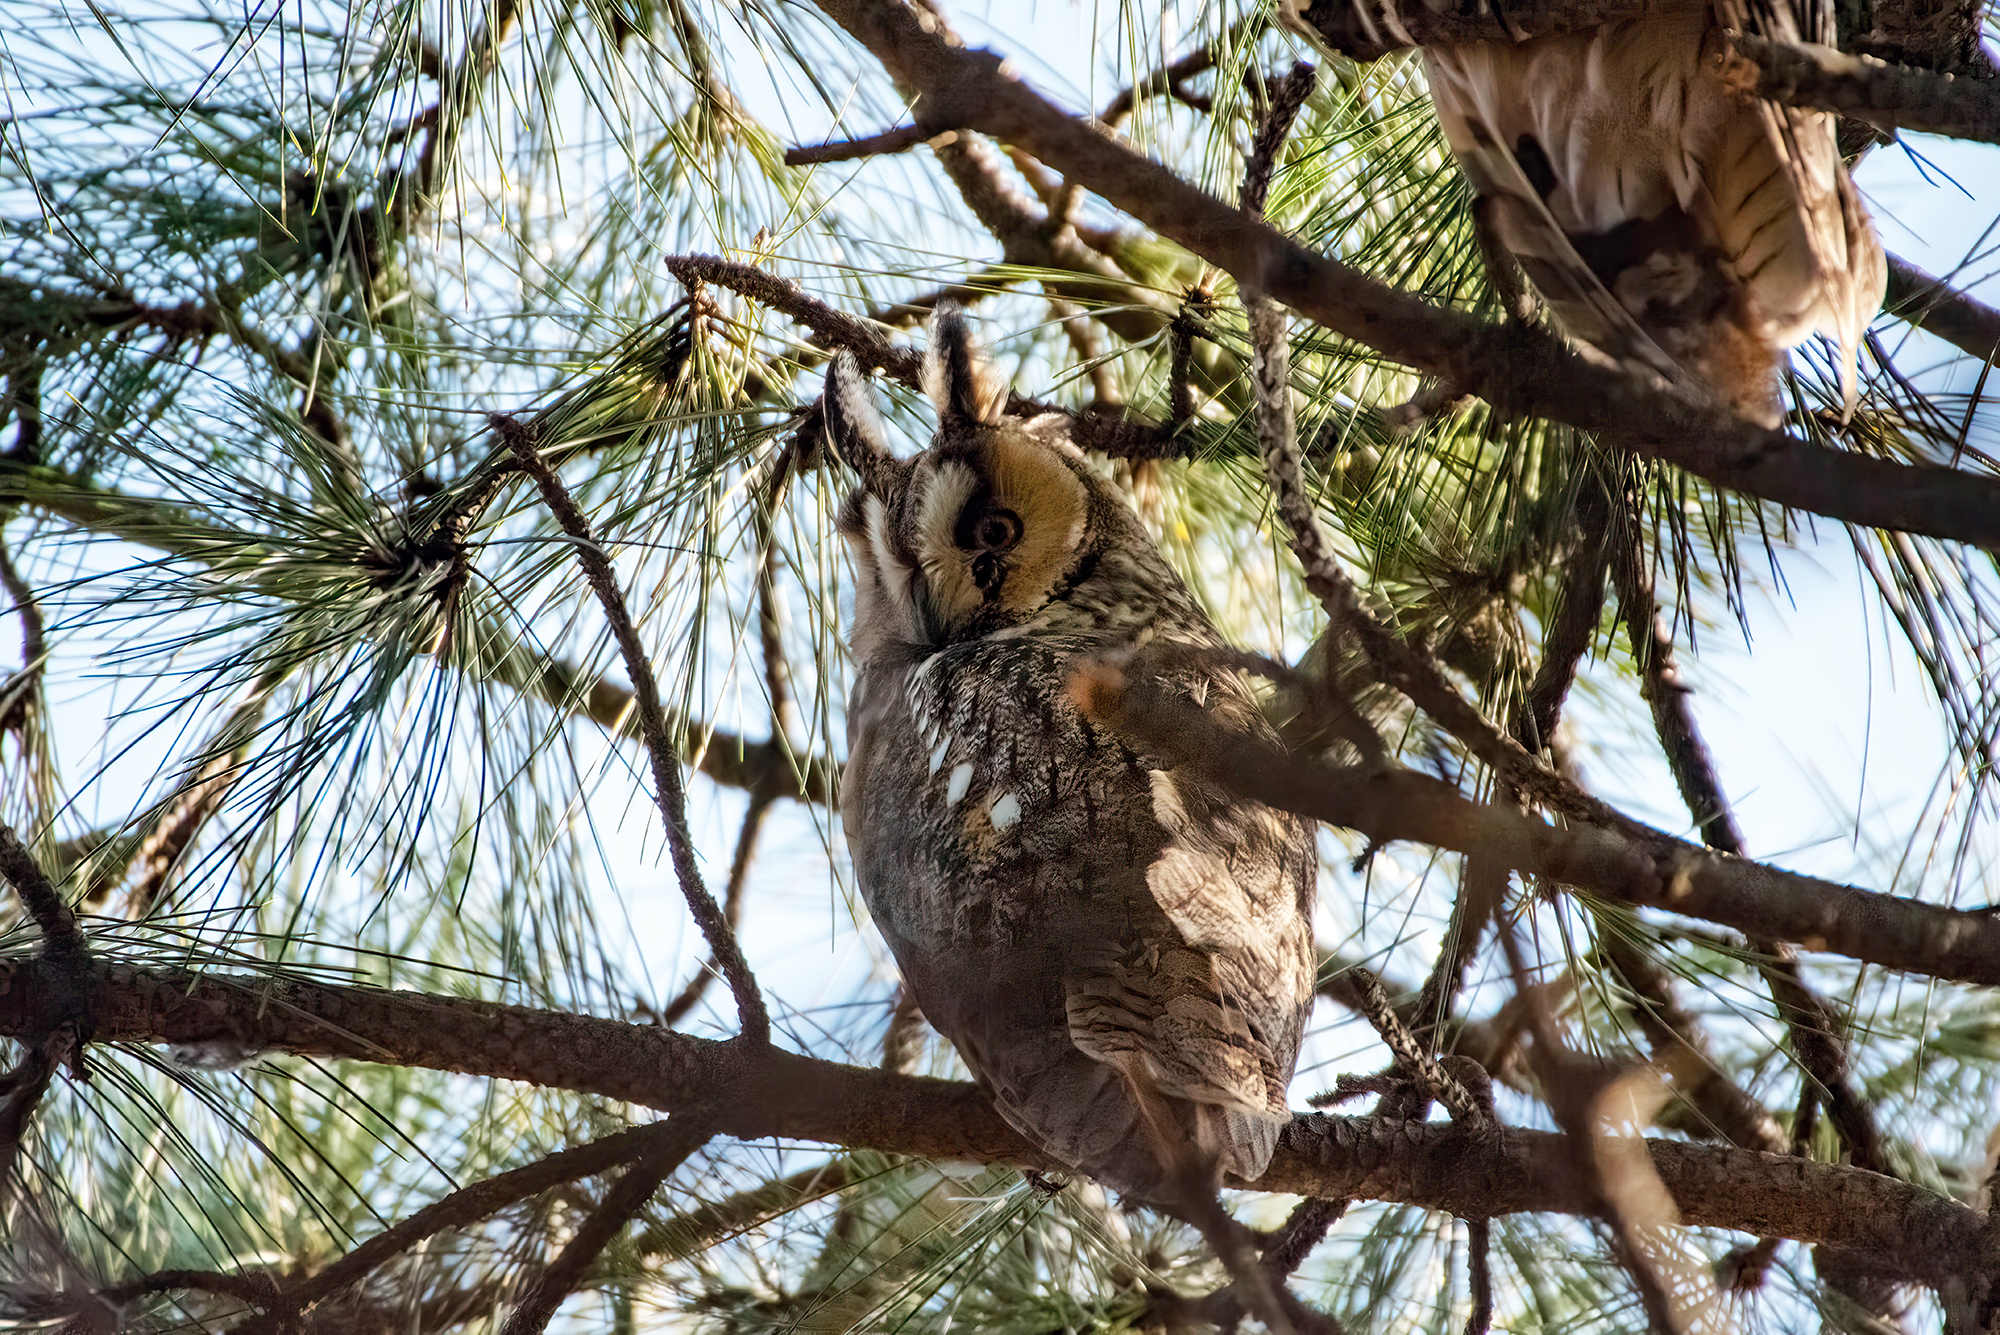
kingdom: Animalia
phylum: Chordata
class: Aves
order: Strigiformes
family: Strigidae
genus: Asio
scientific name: Asio otus
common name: Long-eared owl
